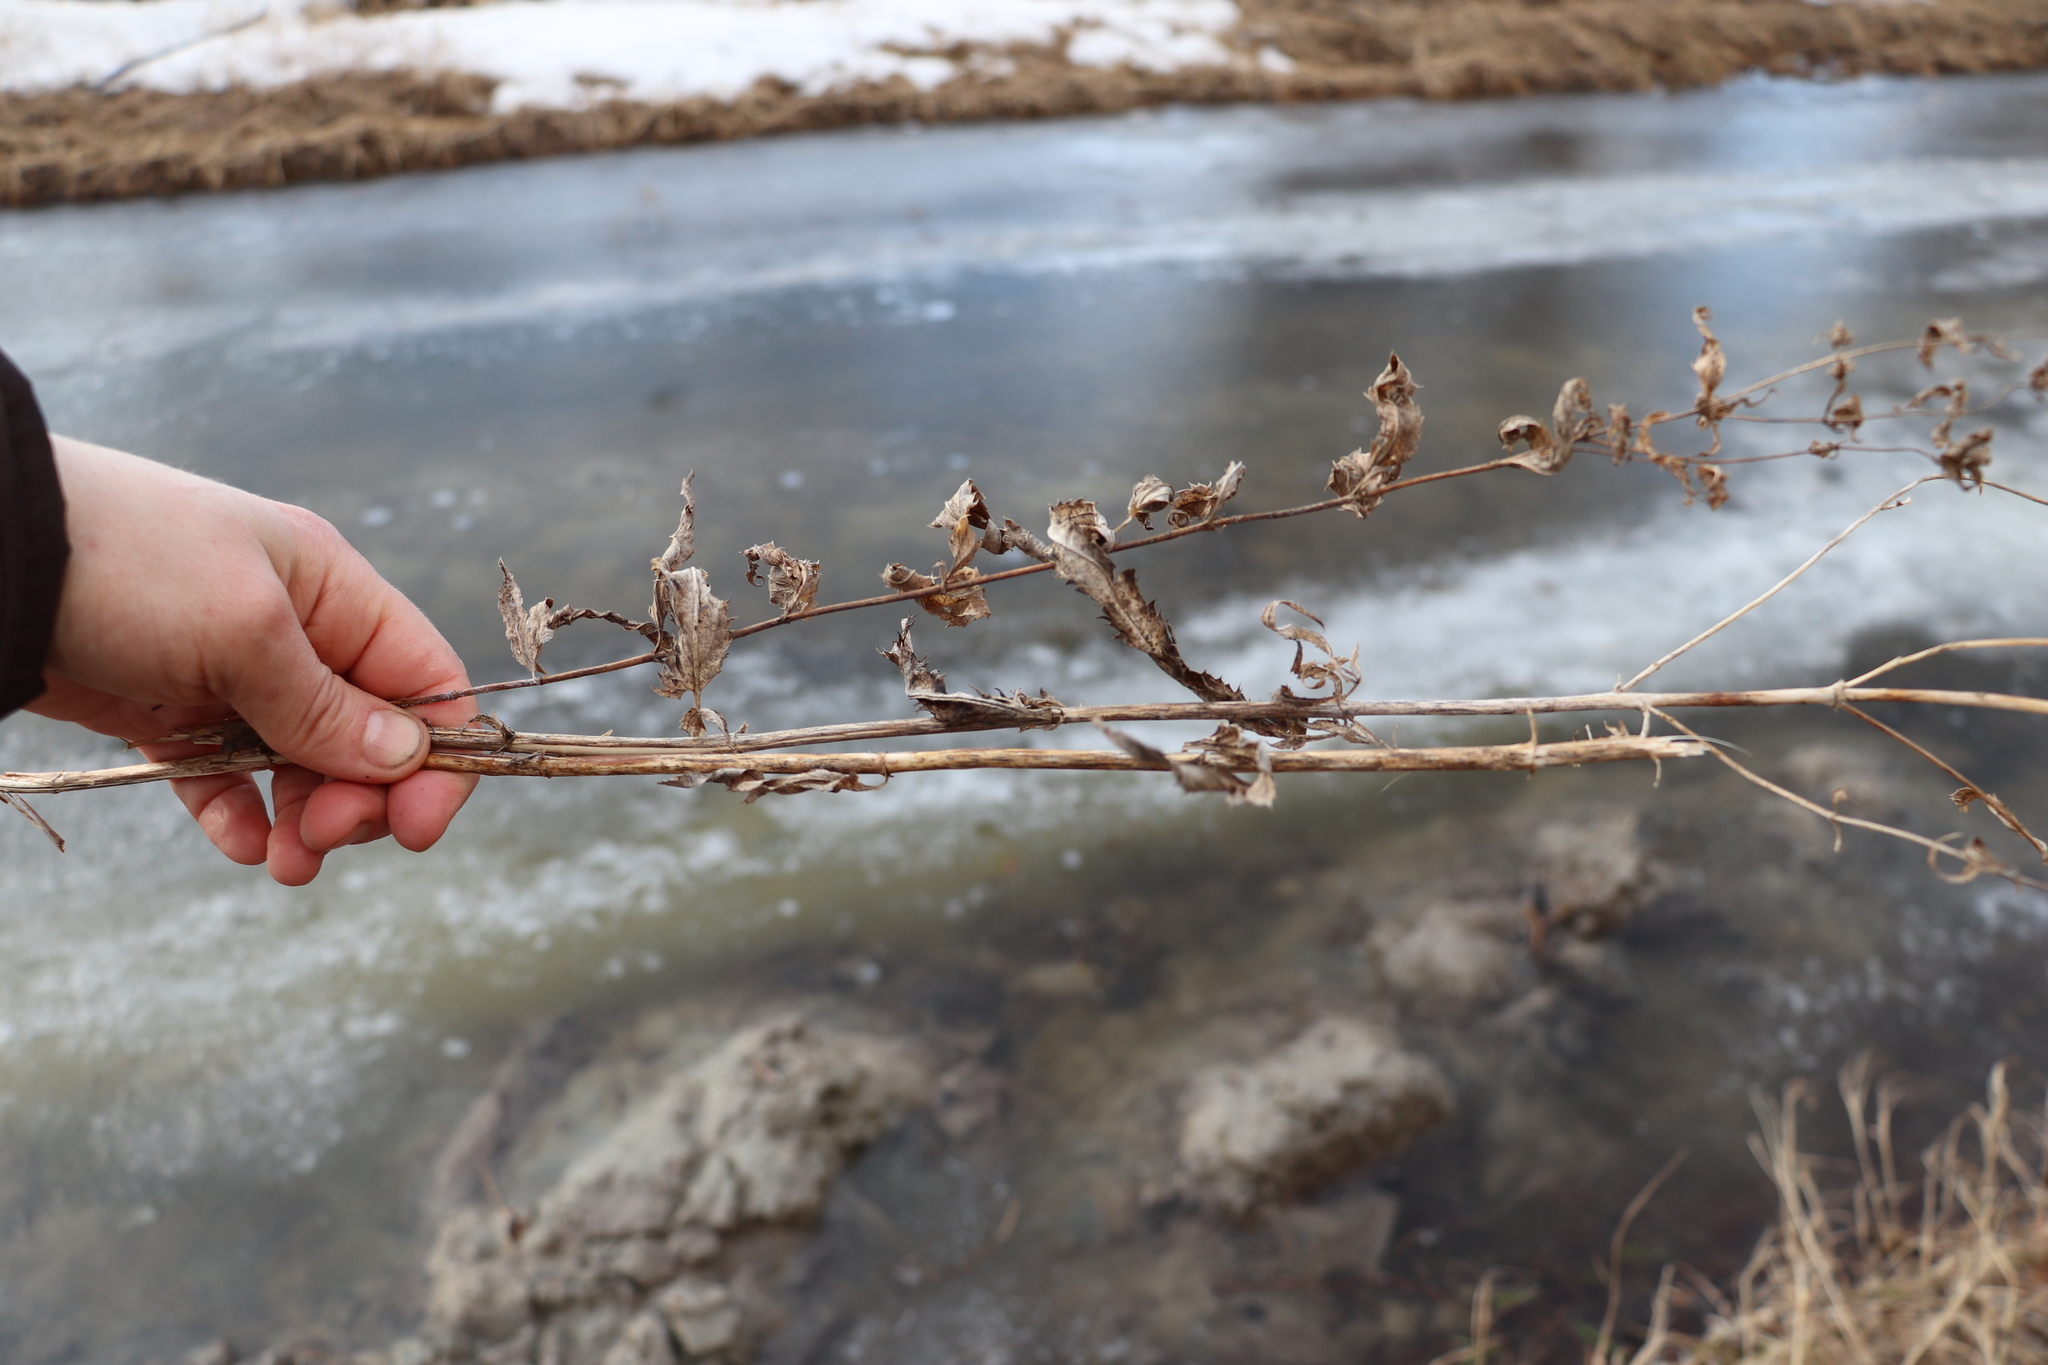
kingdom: Plantae
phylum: Tracheophyta
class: Magnoliopsida
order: Lamiales
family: Plantaginaceae
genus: Veronica
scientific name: Veronica longifolia
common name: Garden speedwell
